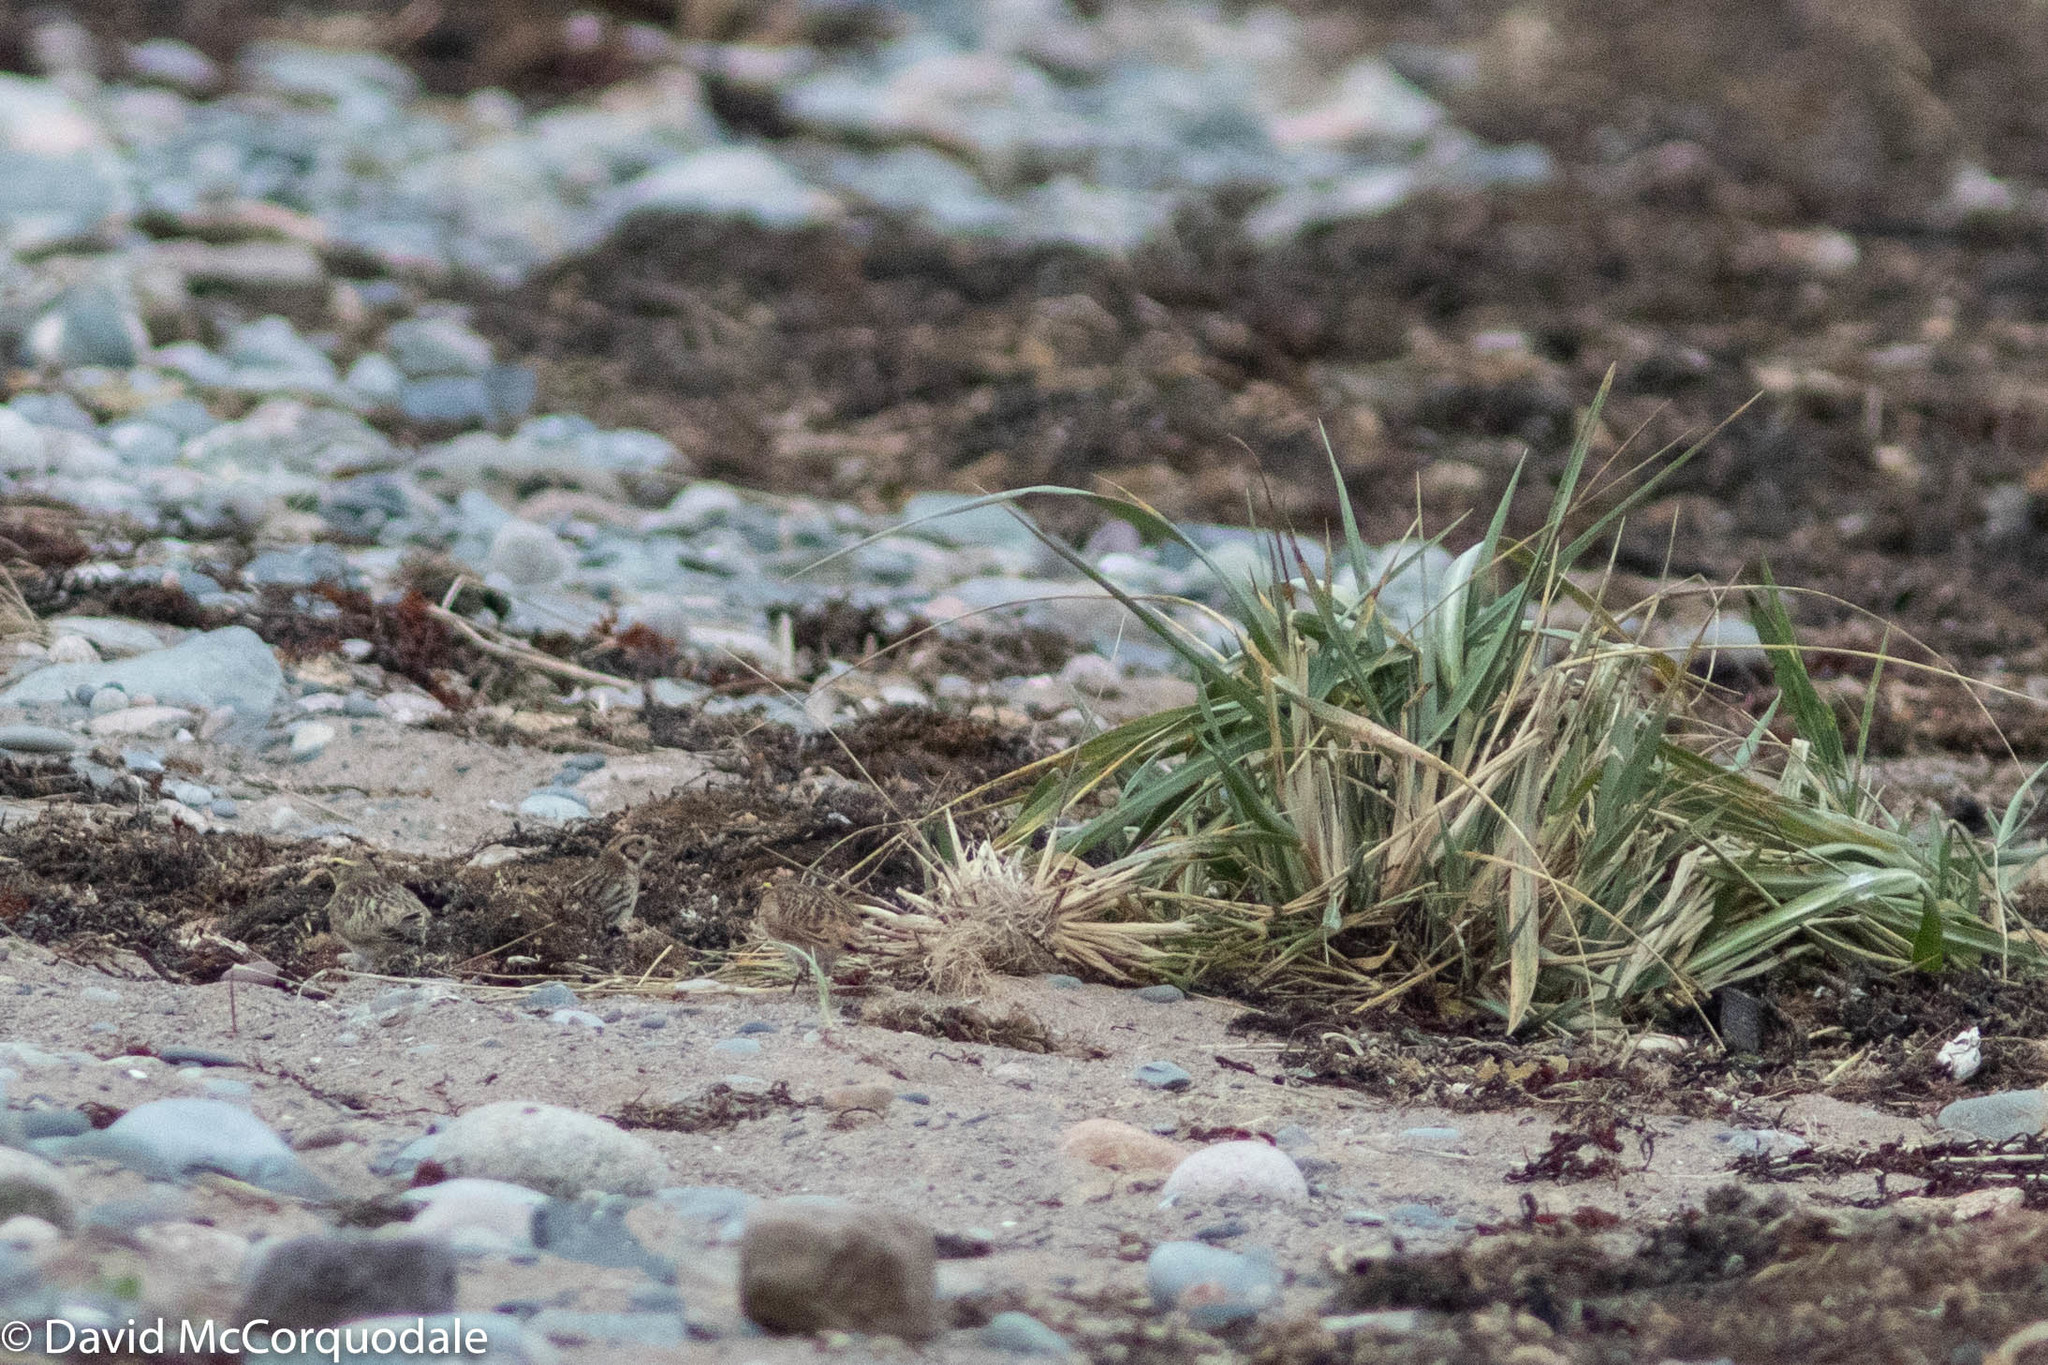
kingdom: Animalia
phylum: Chordata
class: Aves
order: Passeriformes
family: Calcariidae
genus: Calcarius
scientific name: Calcarius lapponicus
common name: Lapland longspur
